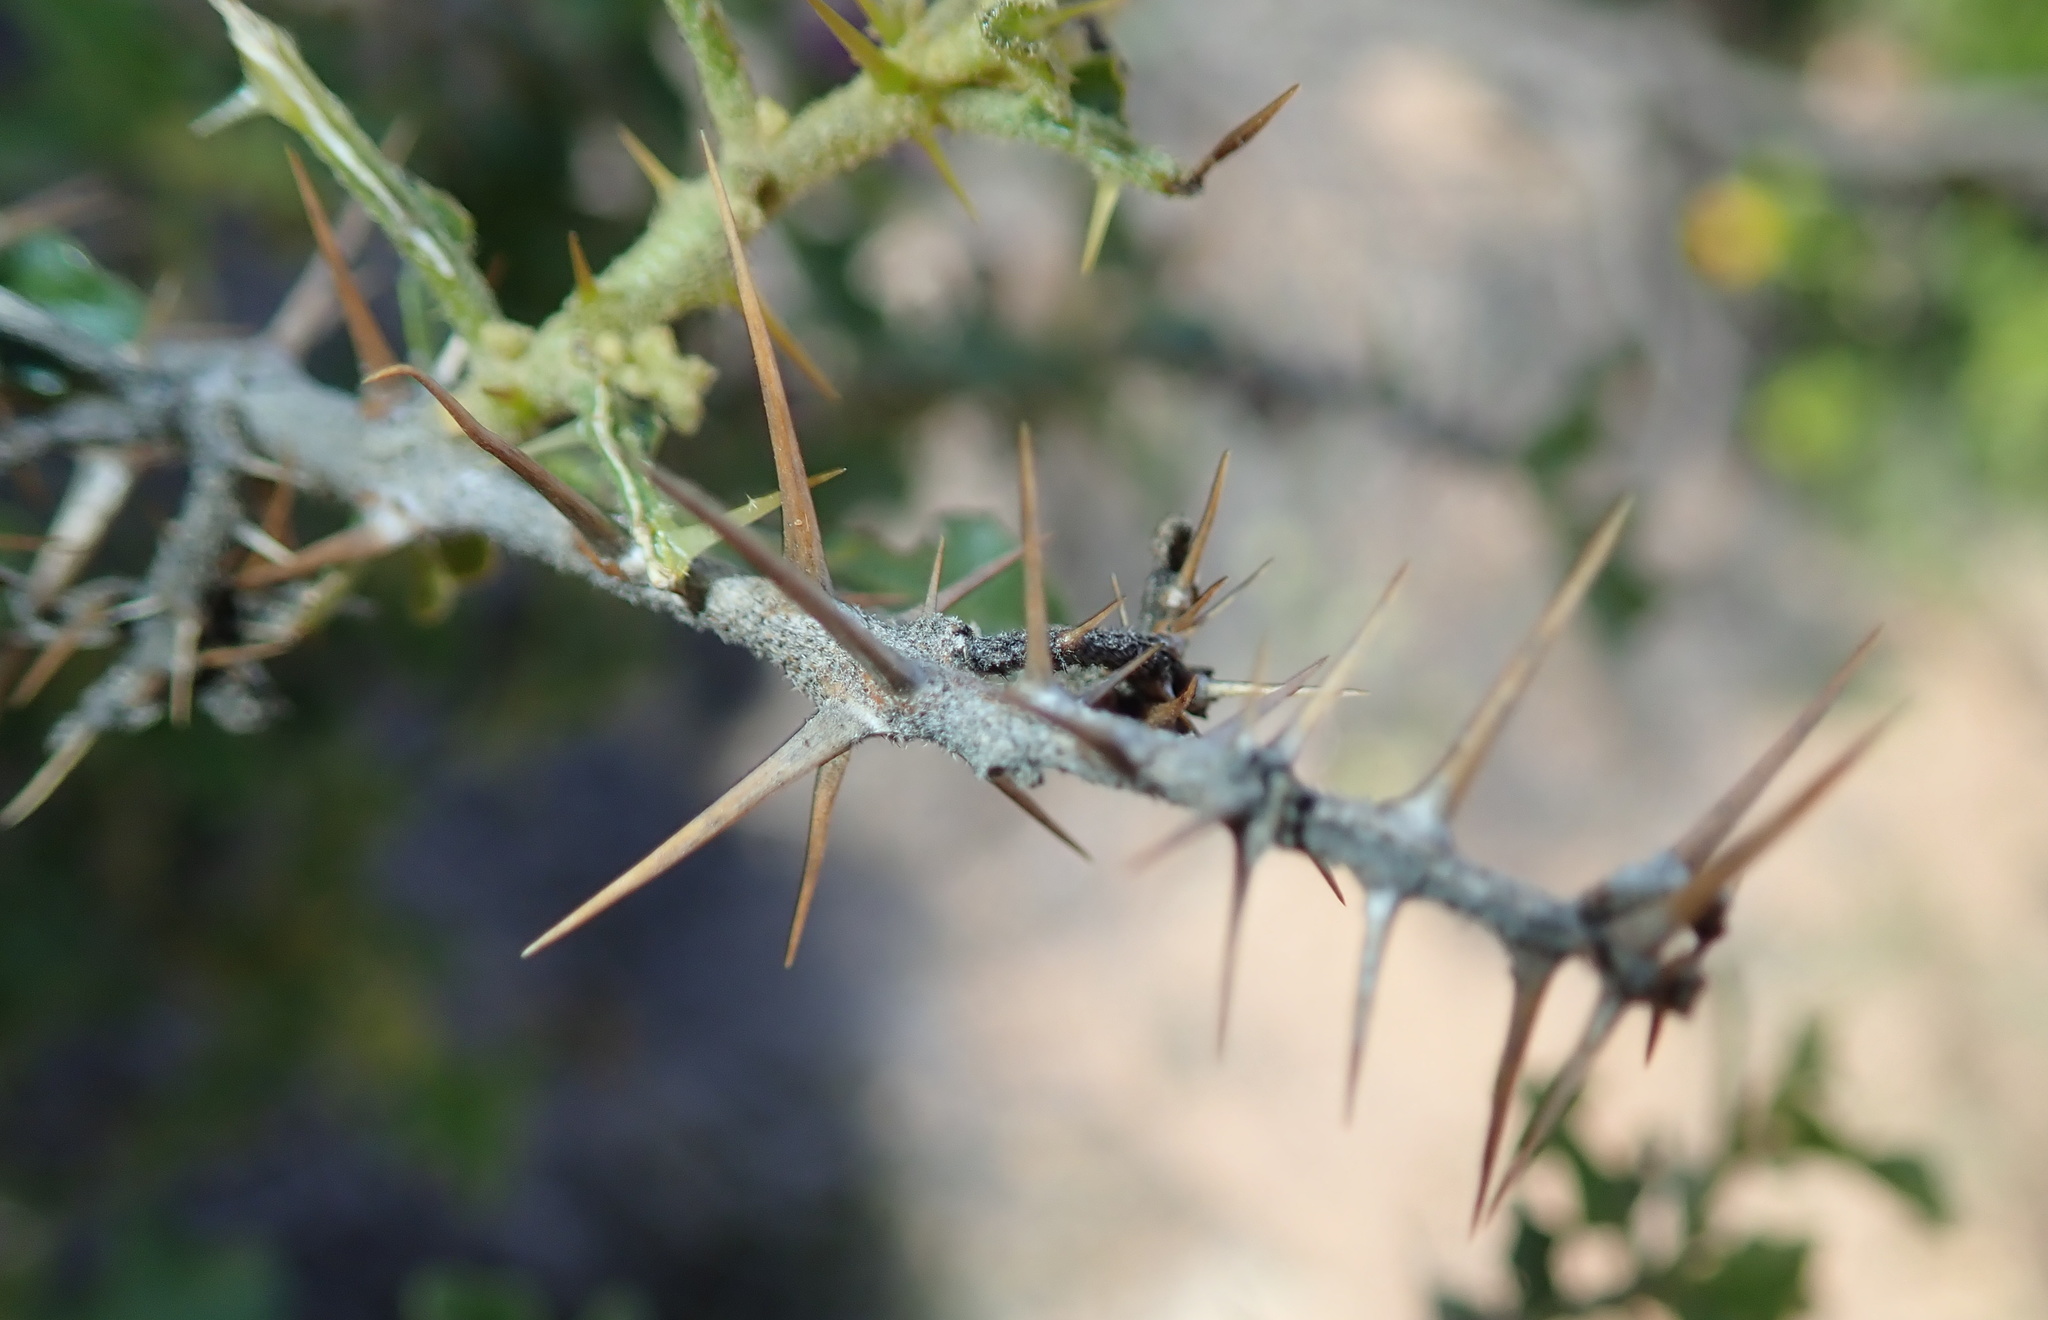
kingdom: Plantae
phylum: Tracheophyta
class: Magnoliopsida
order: Solanales
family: Solanaceae
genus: Solanum
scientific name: Solanum humile
